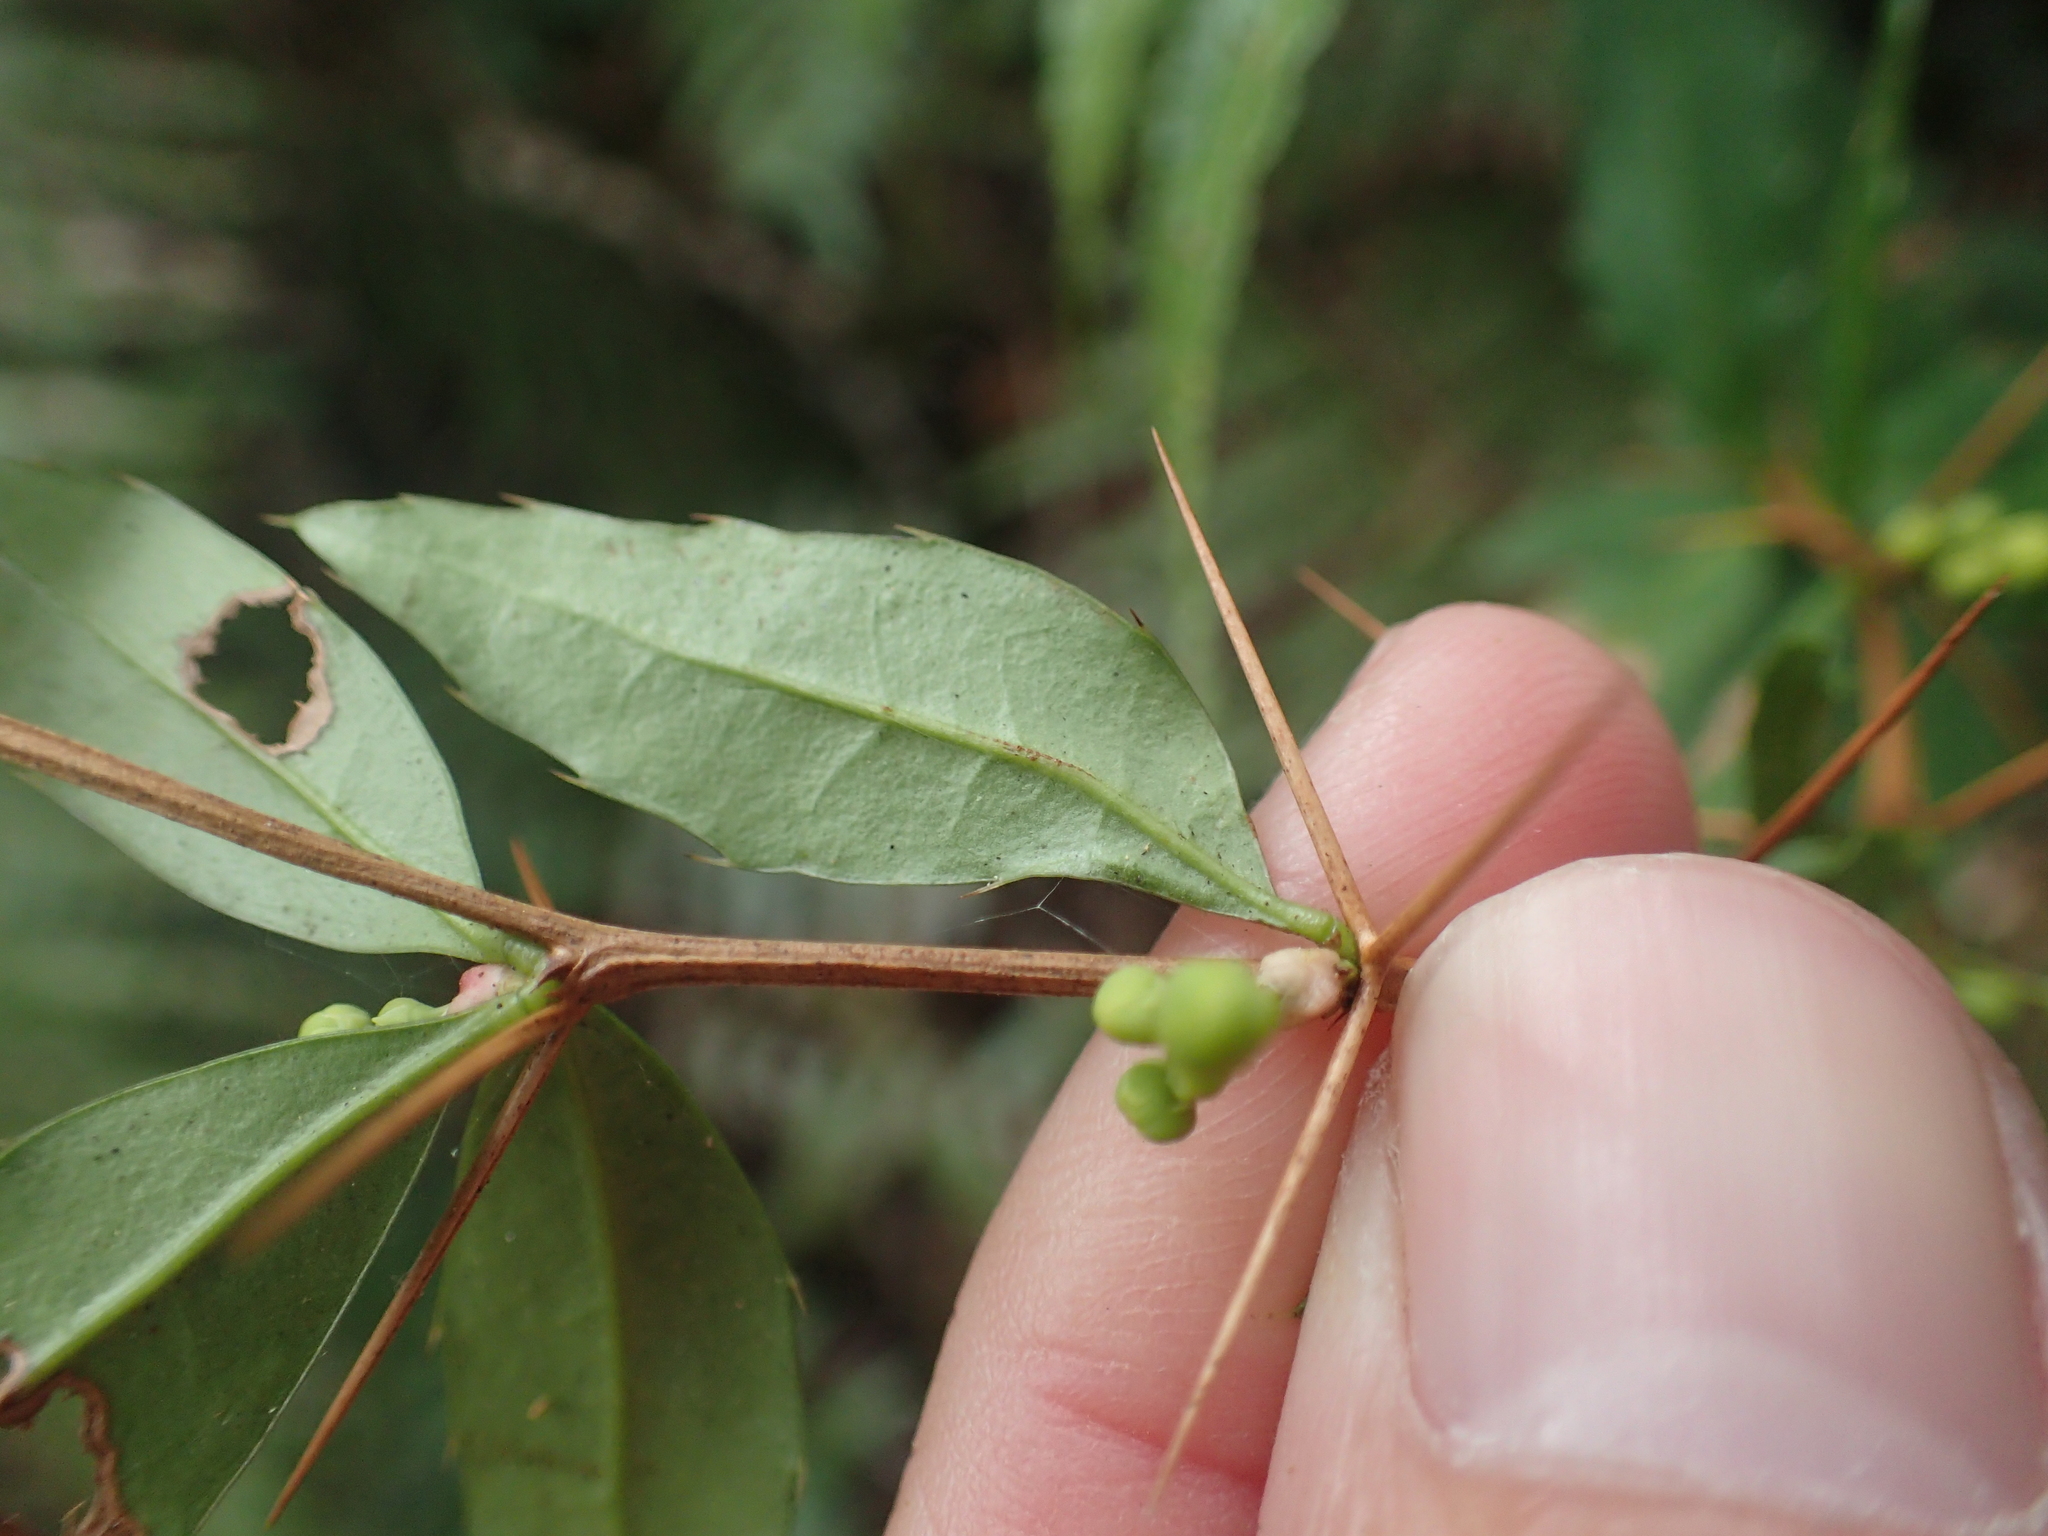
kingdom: Plantae
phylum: Tracheophyta
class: Magnoliopsida
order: Ranunculales
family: Berberidaceae
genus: Berberis
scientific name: Berberis hayatana
